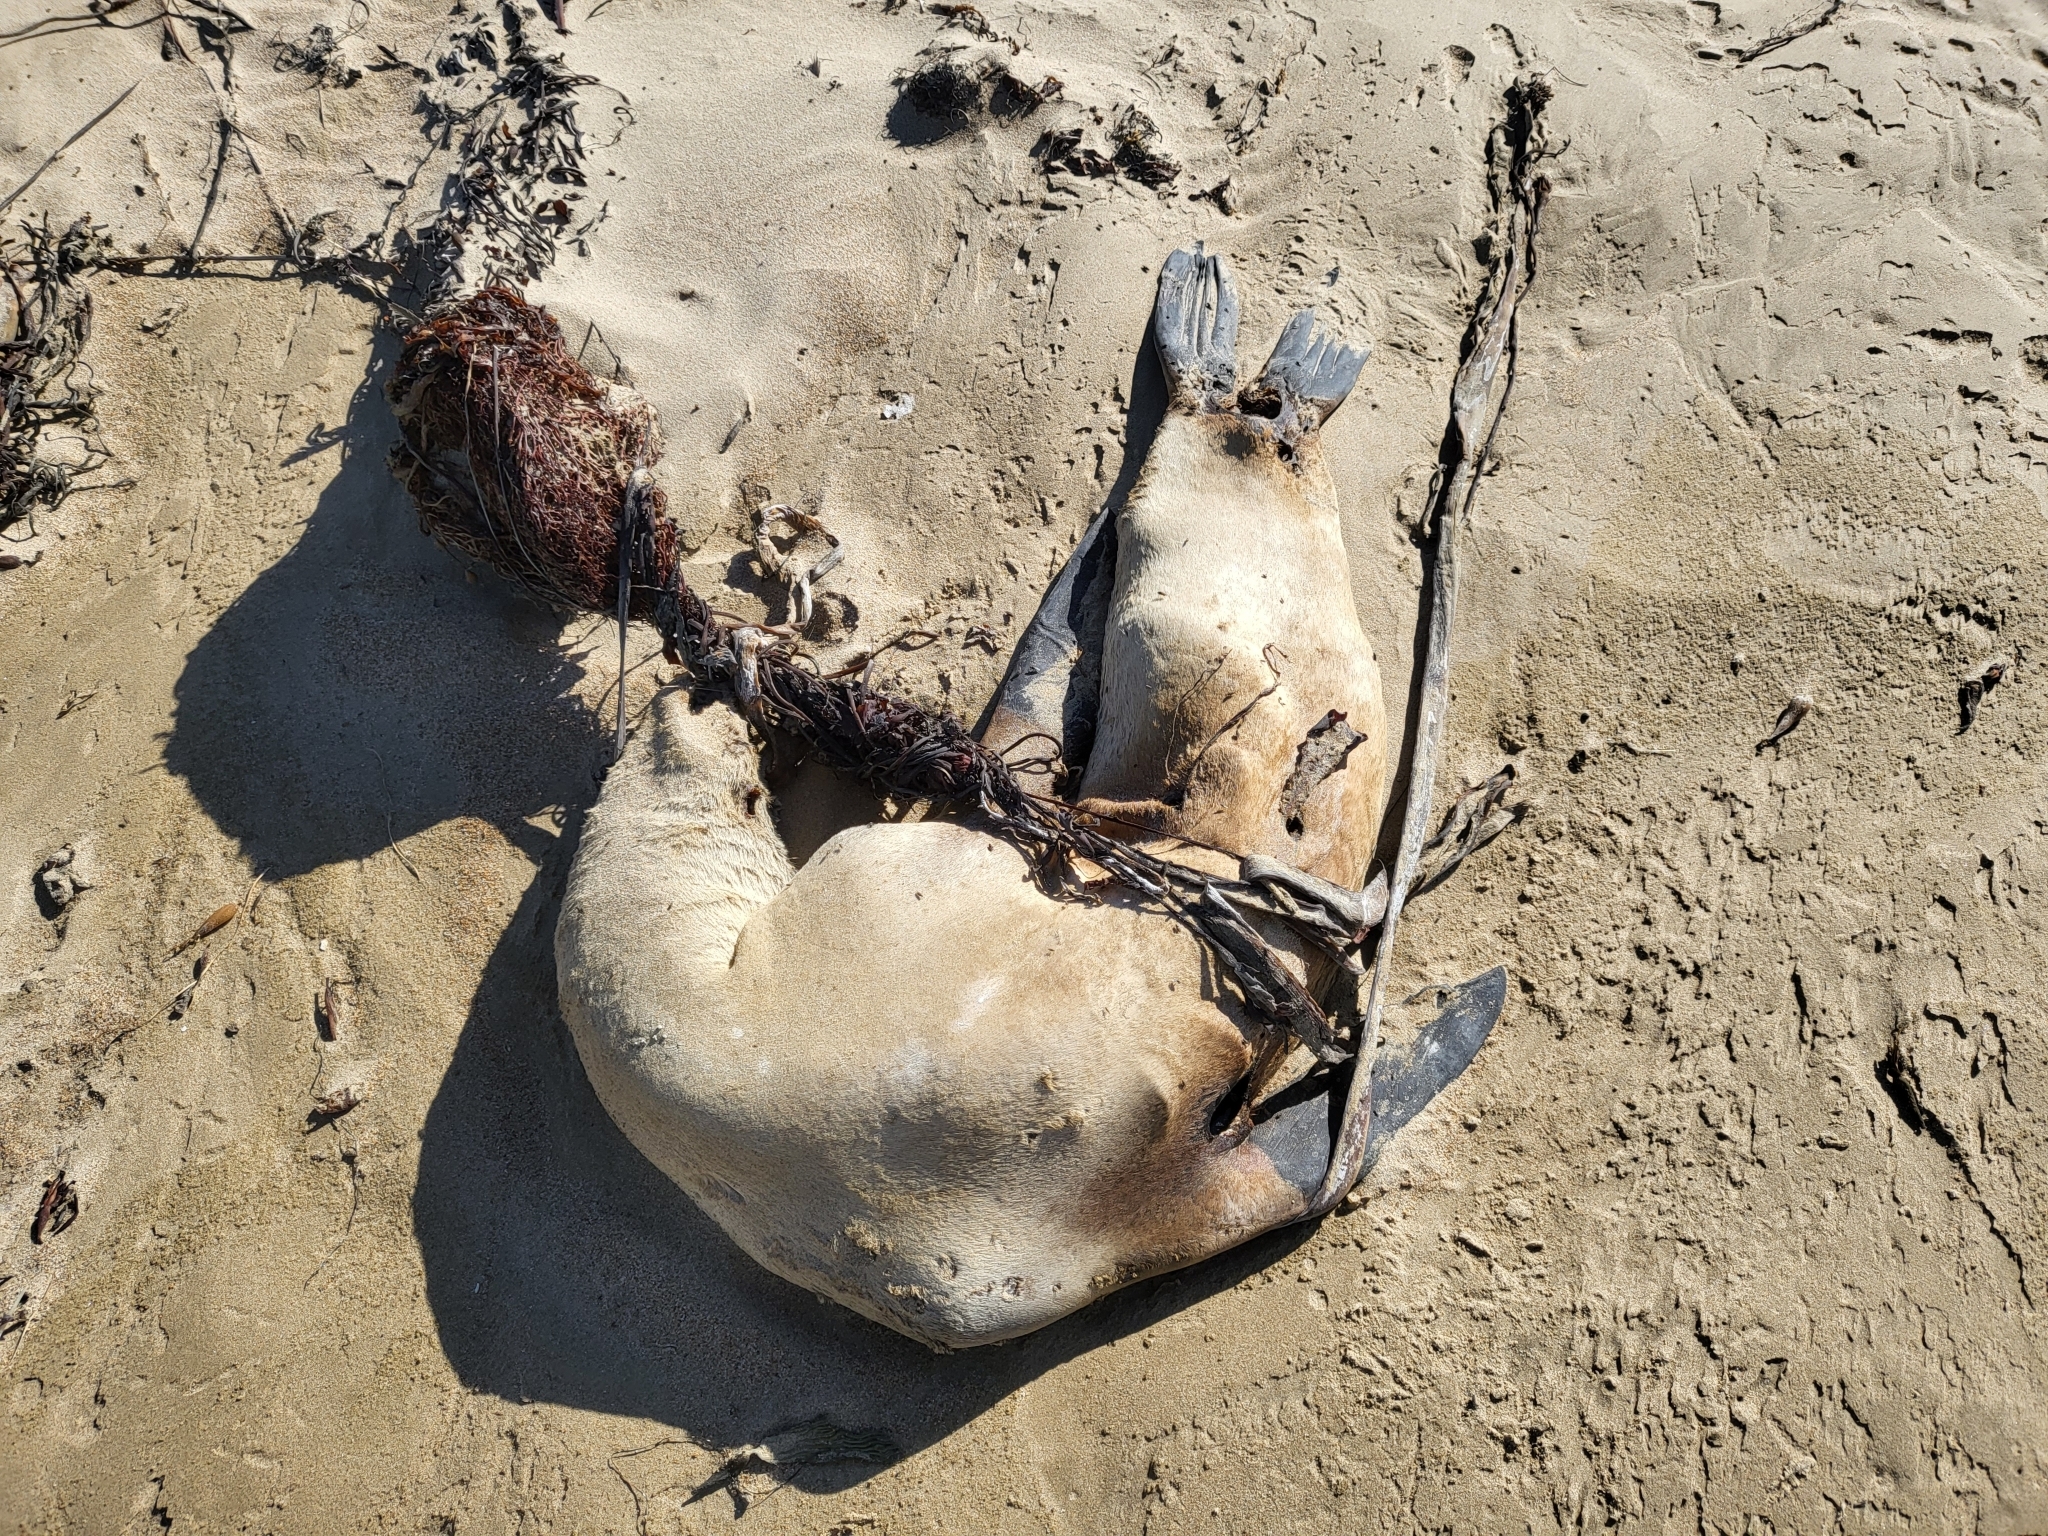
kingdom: Animalia
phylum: Chordata
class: Mammalia
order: Carnivora
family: Otariidae
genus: Zalophus
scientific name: Zalophus californianus
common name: California sea lion
